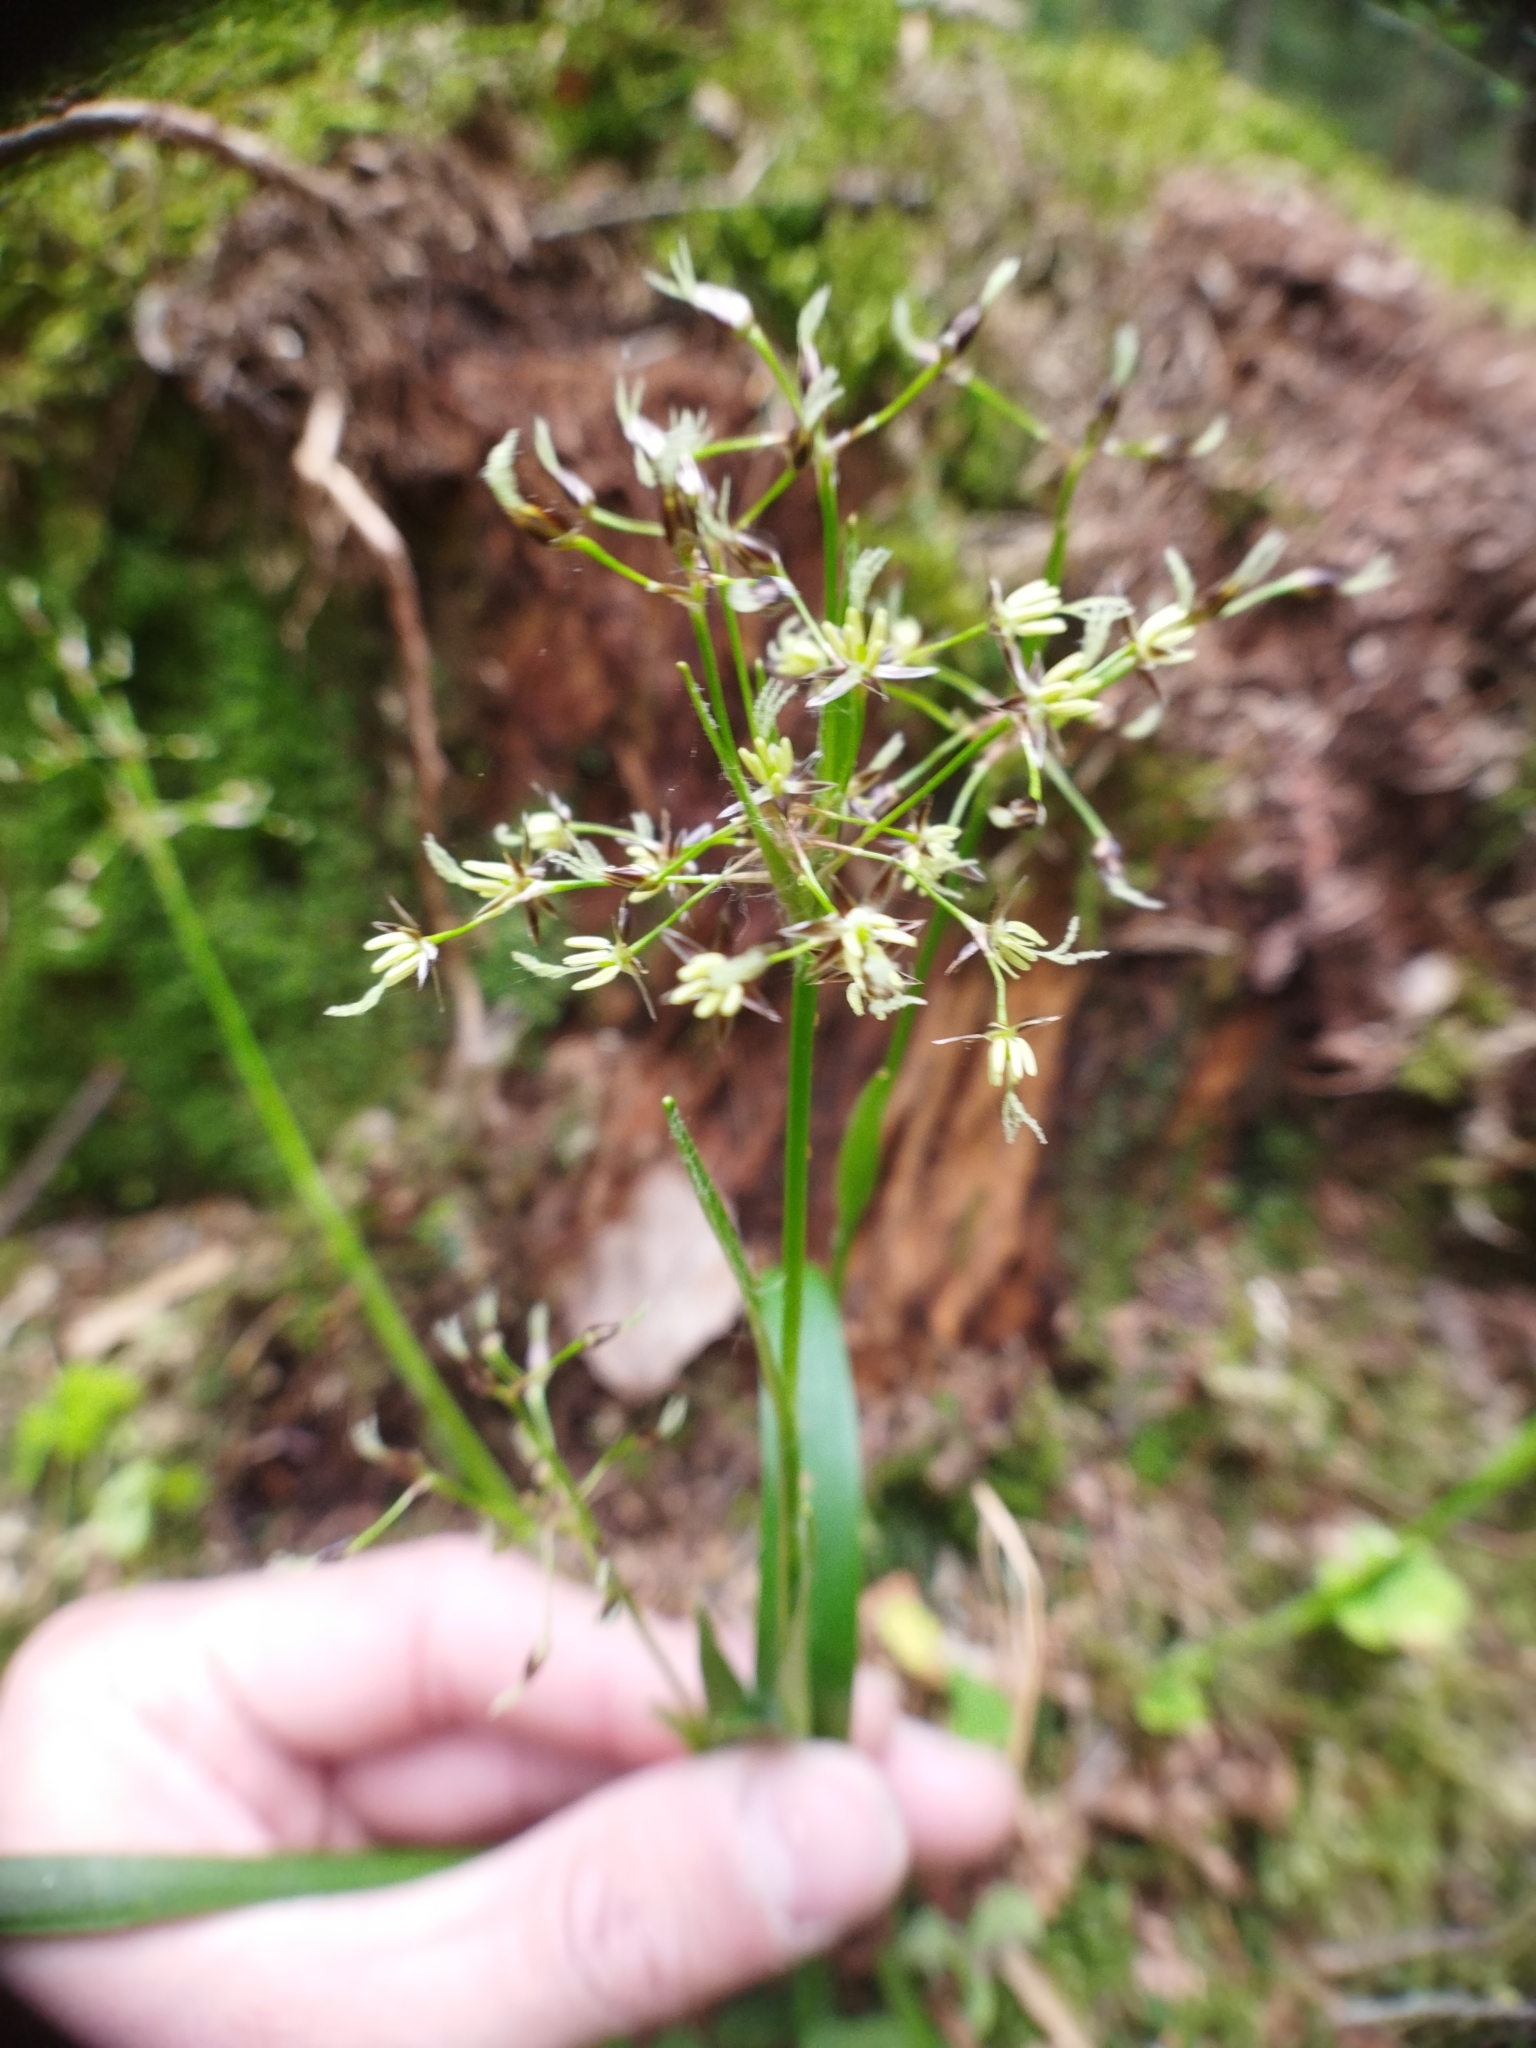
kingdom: Plantae
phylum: Tracheophyta
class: Liliopsida
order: Poales
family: Juncaceae
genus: Luzula
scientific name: Luzula pilosa
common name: Hairy wood-rush
